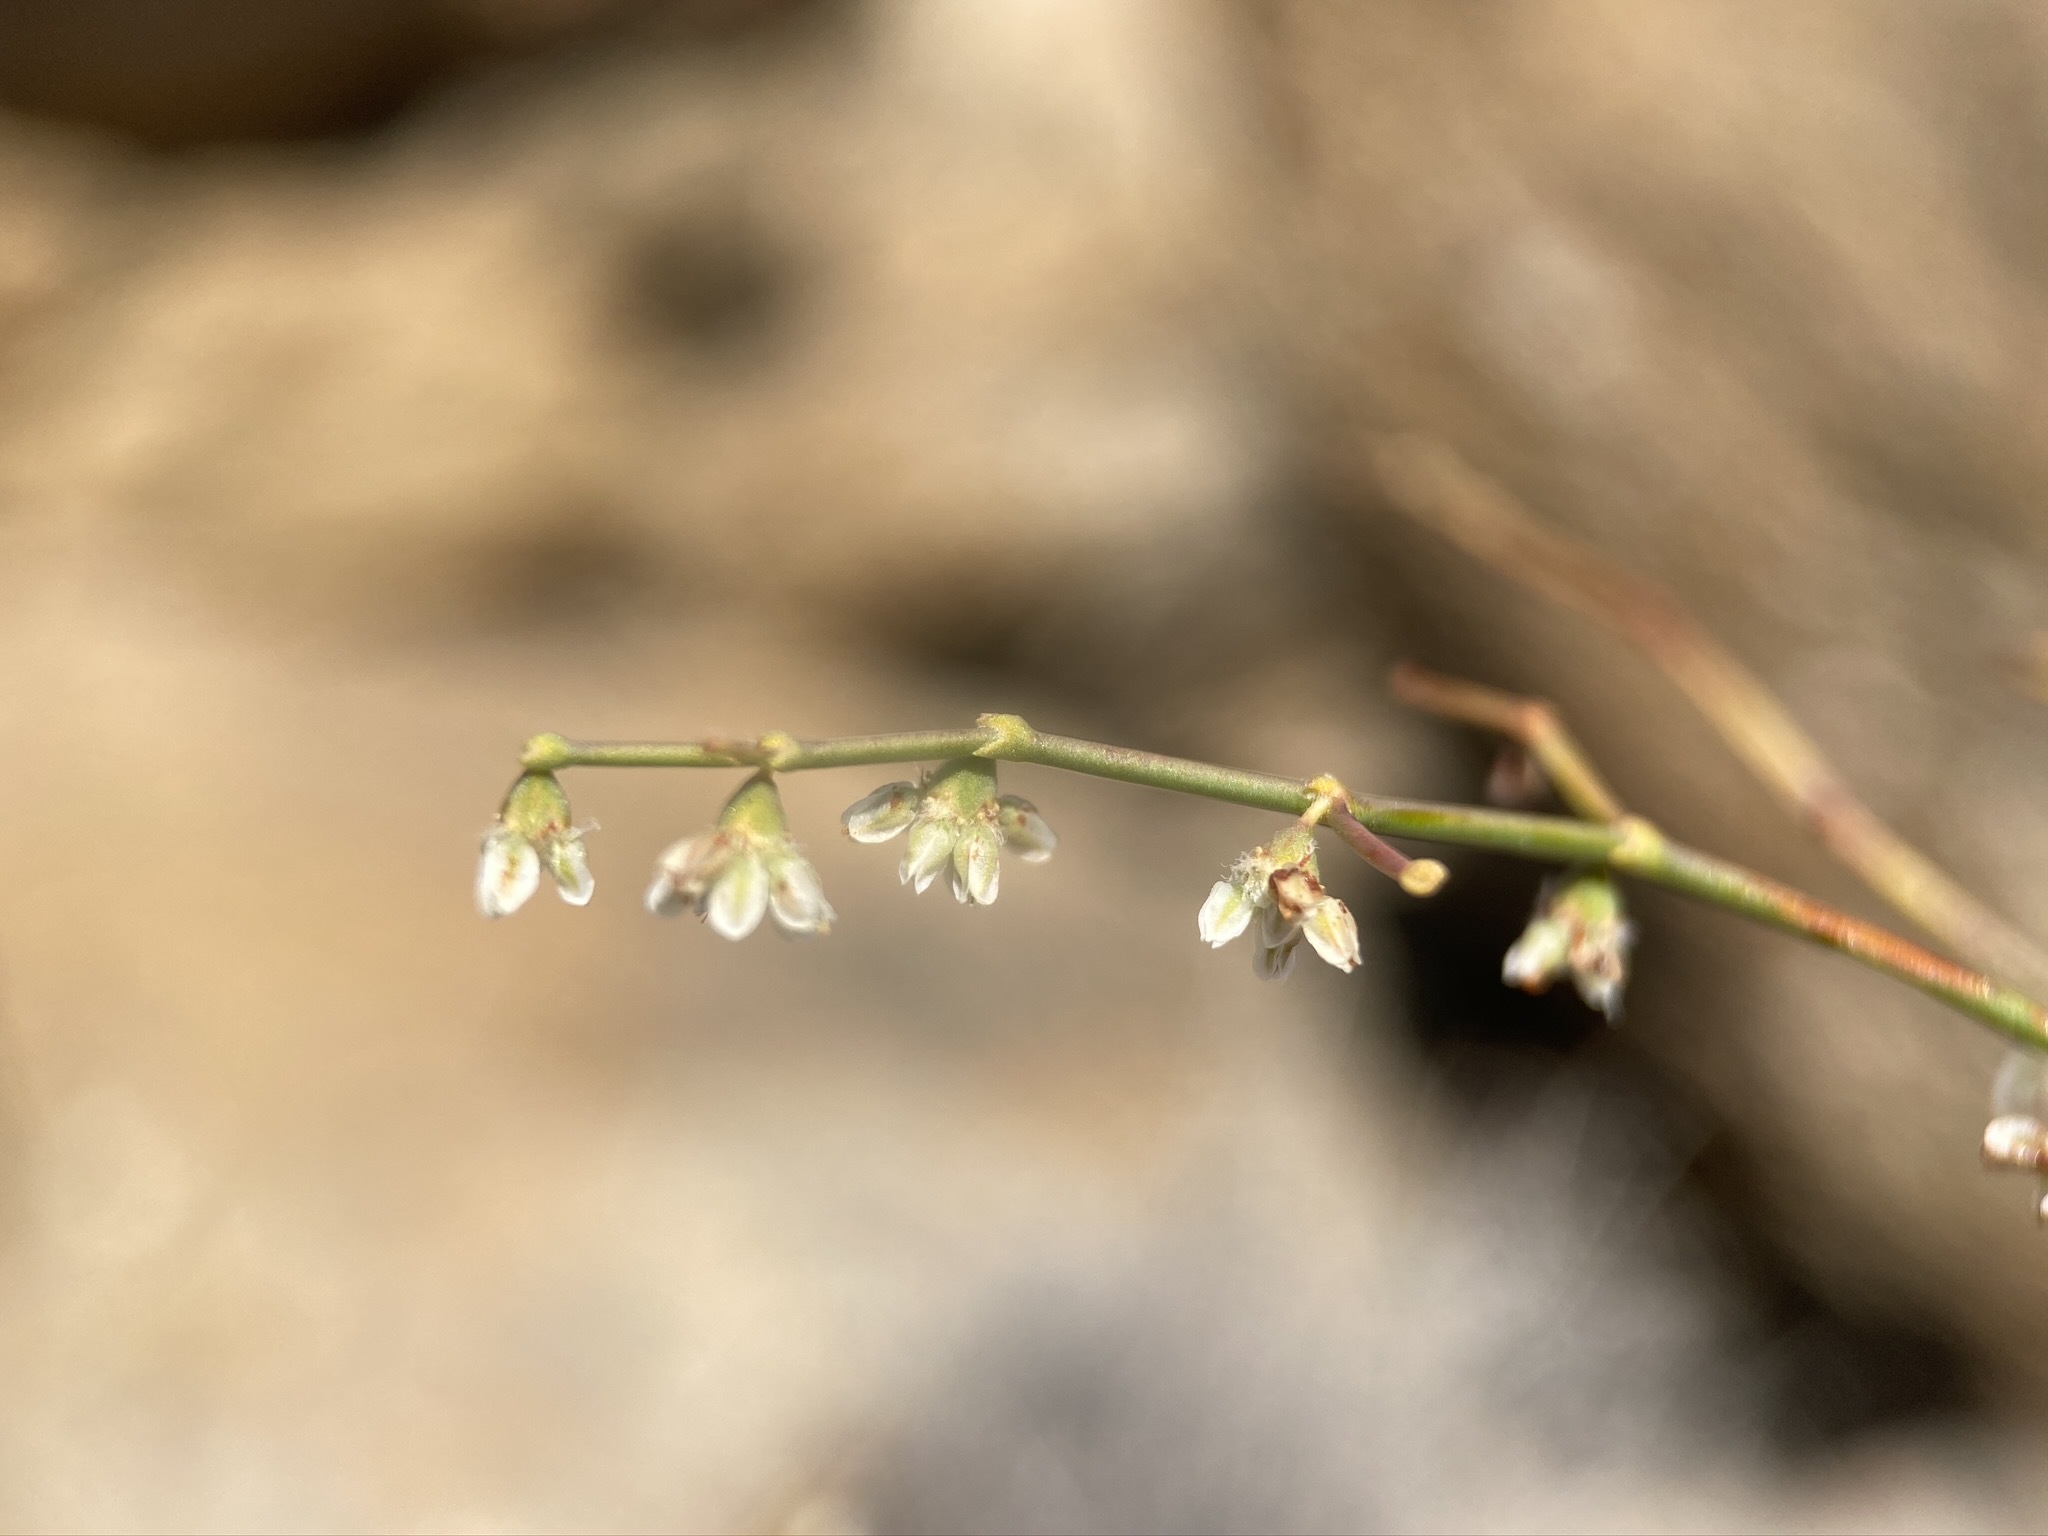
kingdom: Plantae
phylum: Tracheophyta
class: Magnoliopsida
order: Caryophyllales
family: Polygonaceae
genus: Eriogonum
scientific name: Eriogonum deflexum
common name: Skeleton-weed
